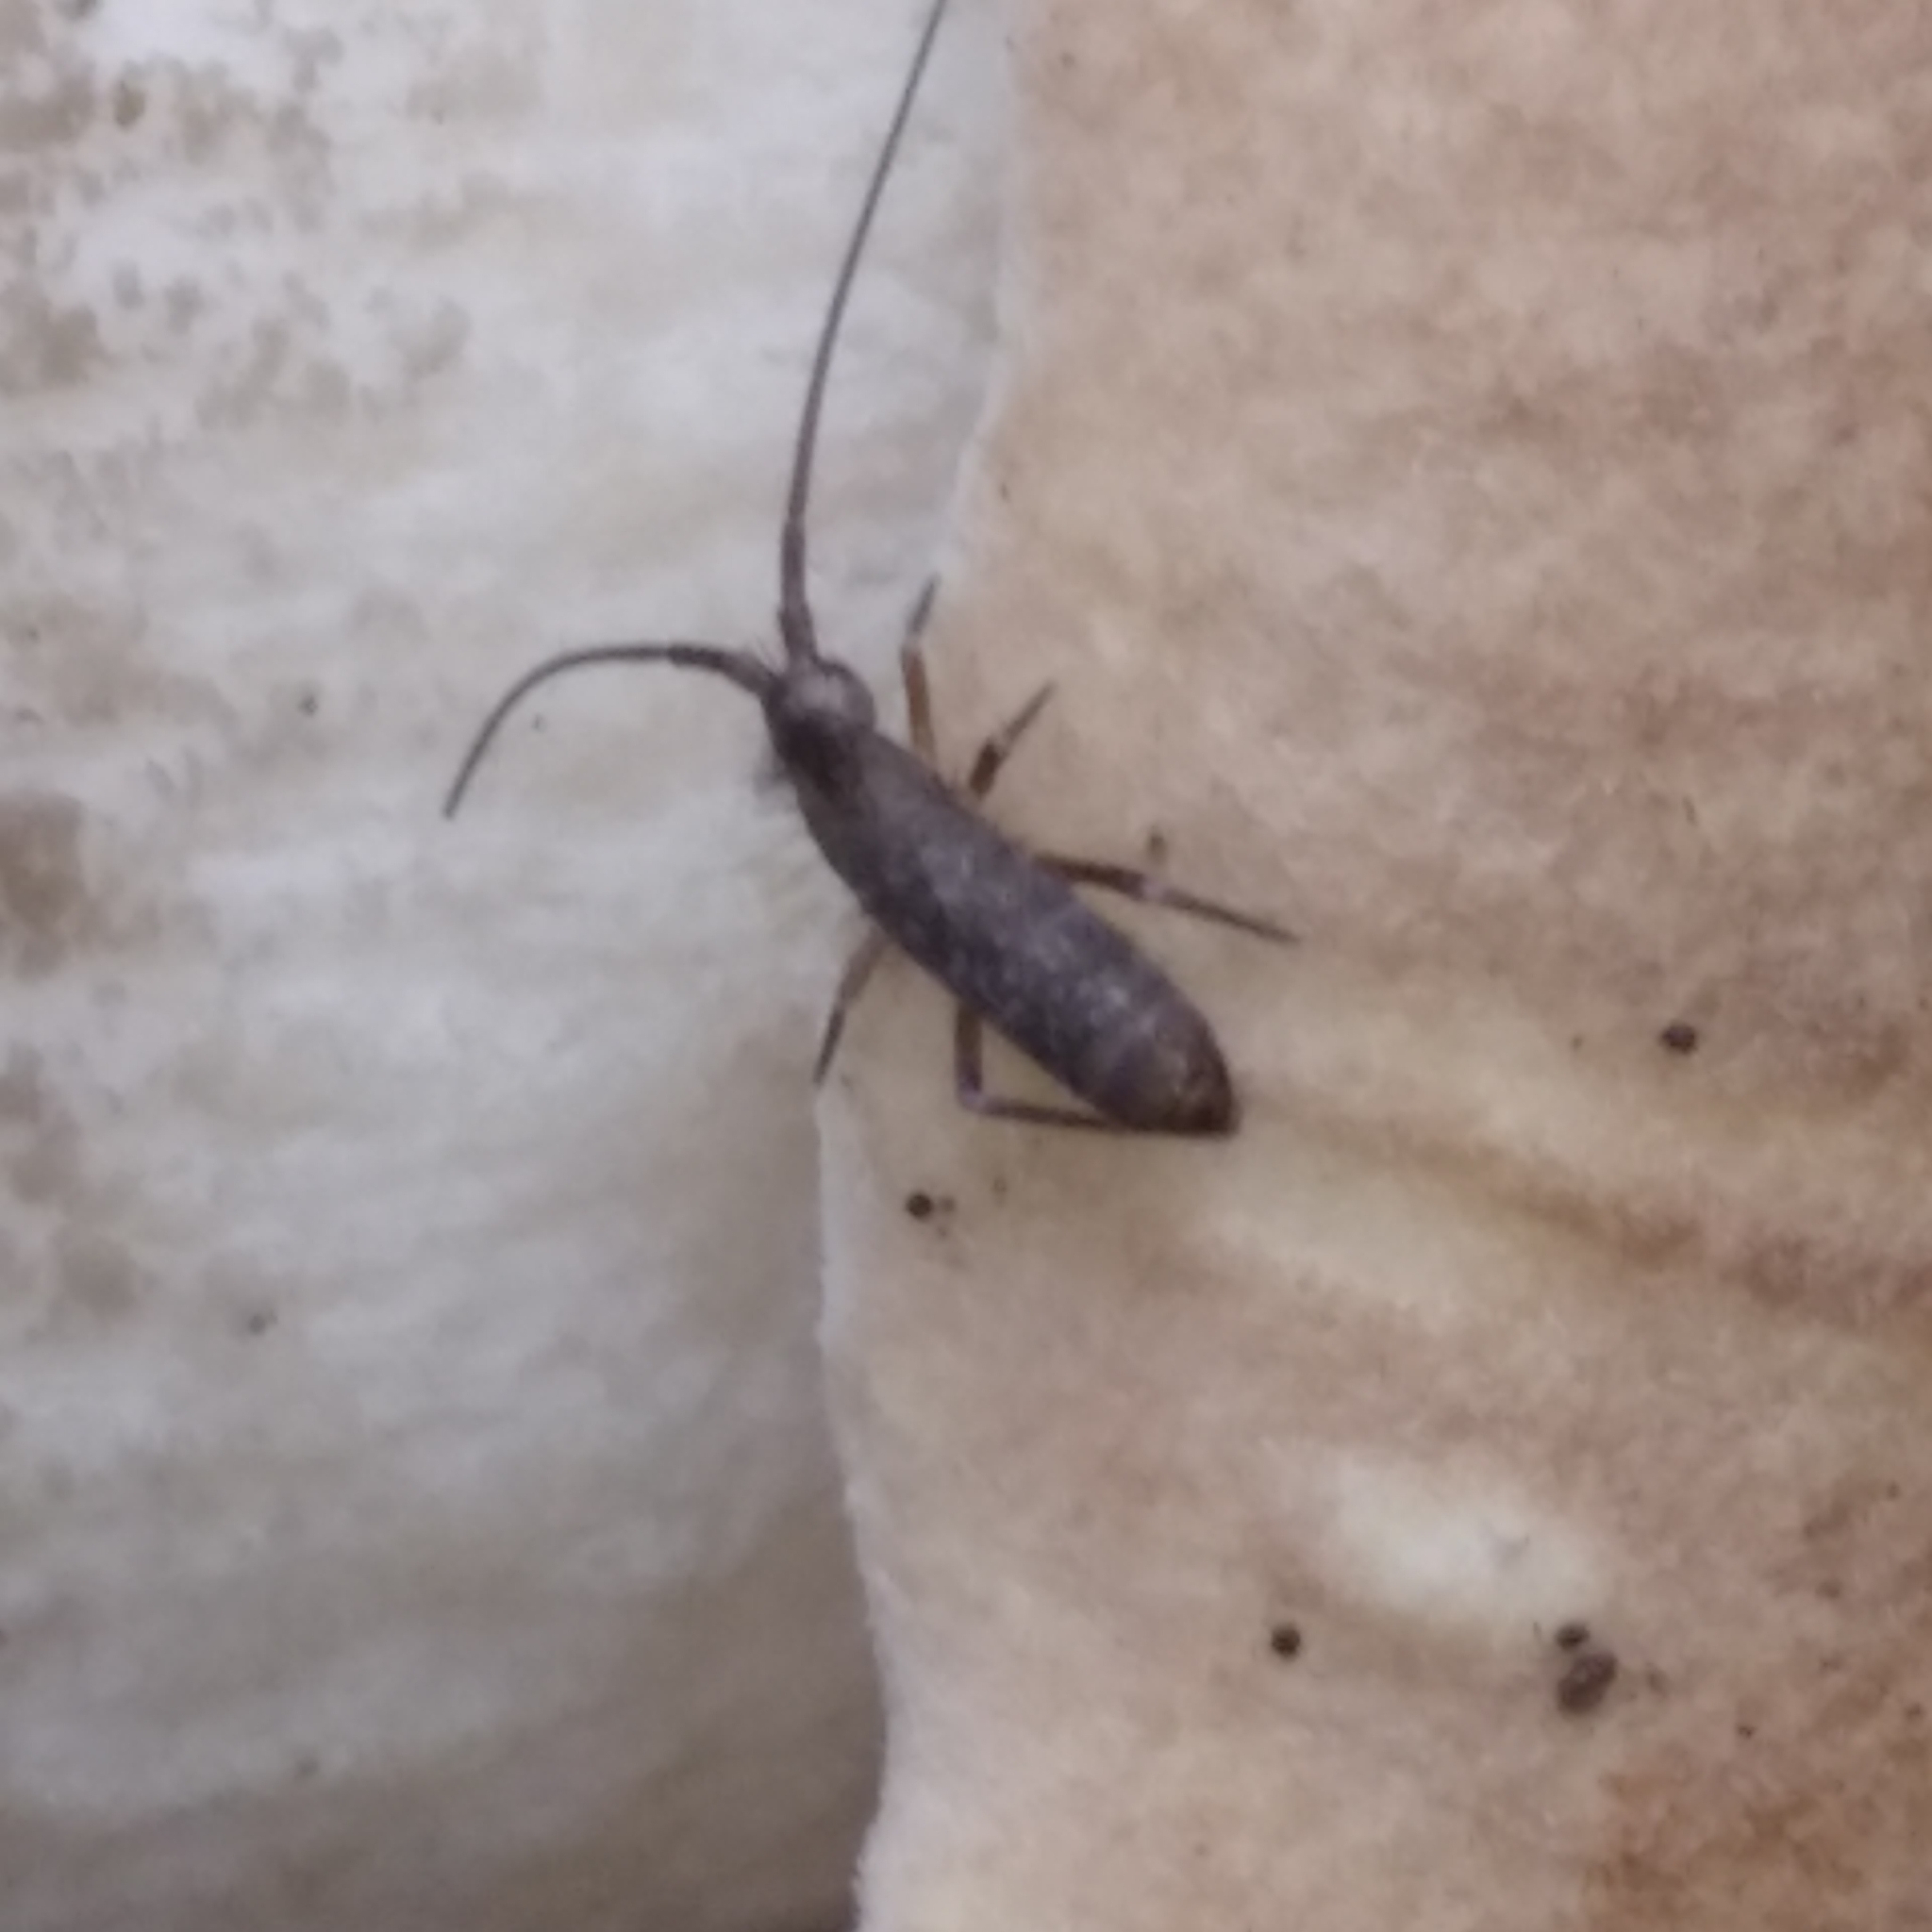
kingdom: Animalia
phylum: Arthropoda
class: Collembola
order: Entomobryomorpha
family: Tomoceridae
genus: Pogonognathellus
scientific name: Pogonognathellus
